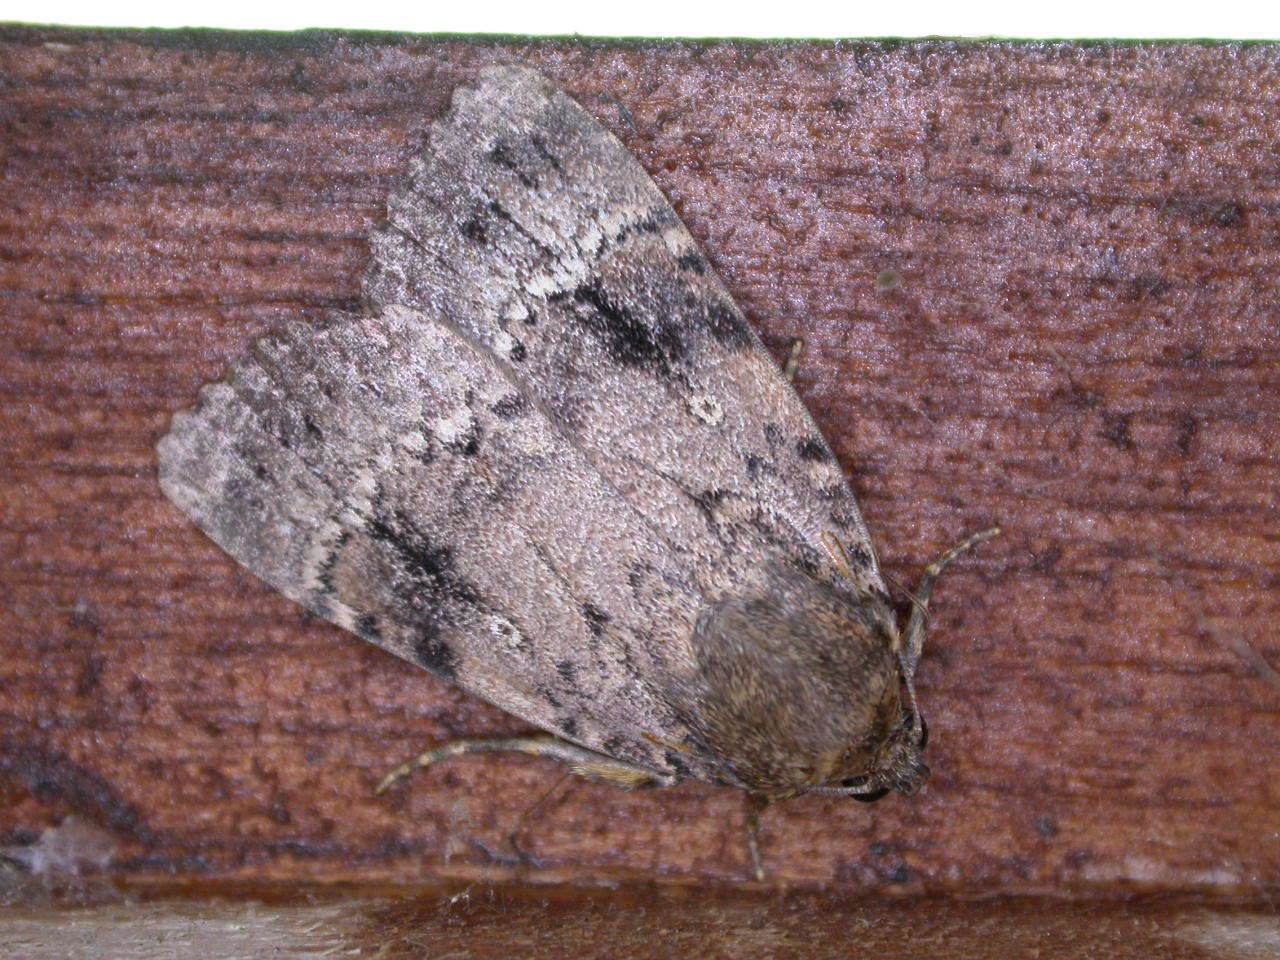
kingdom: Animalia
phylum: Arthropoda
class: Insecta
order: Lepidoptera
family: Noctuidae
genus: Amphipyra
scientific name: Amphipyra pyramidea
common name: Copper underwing
